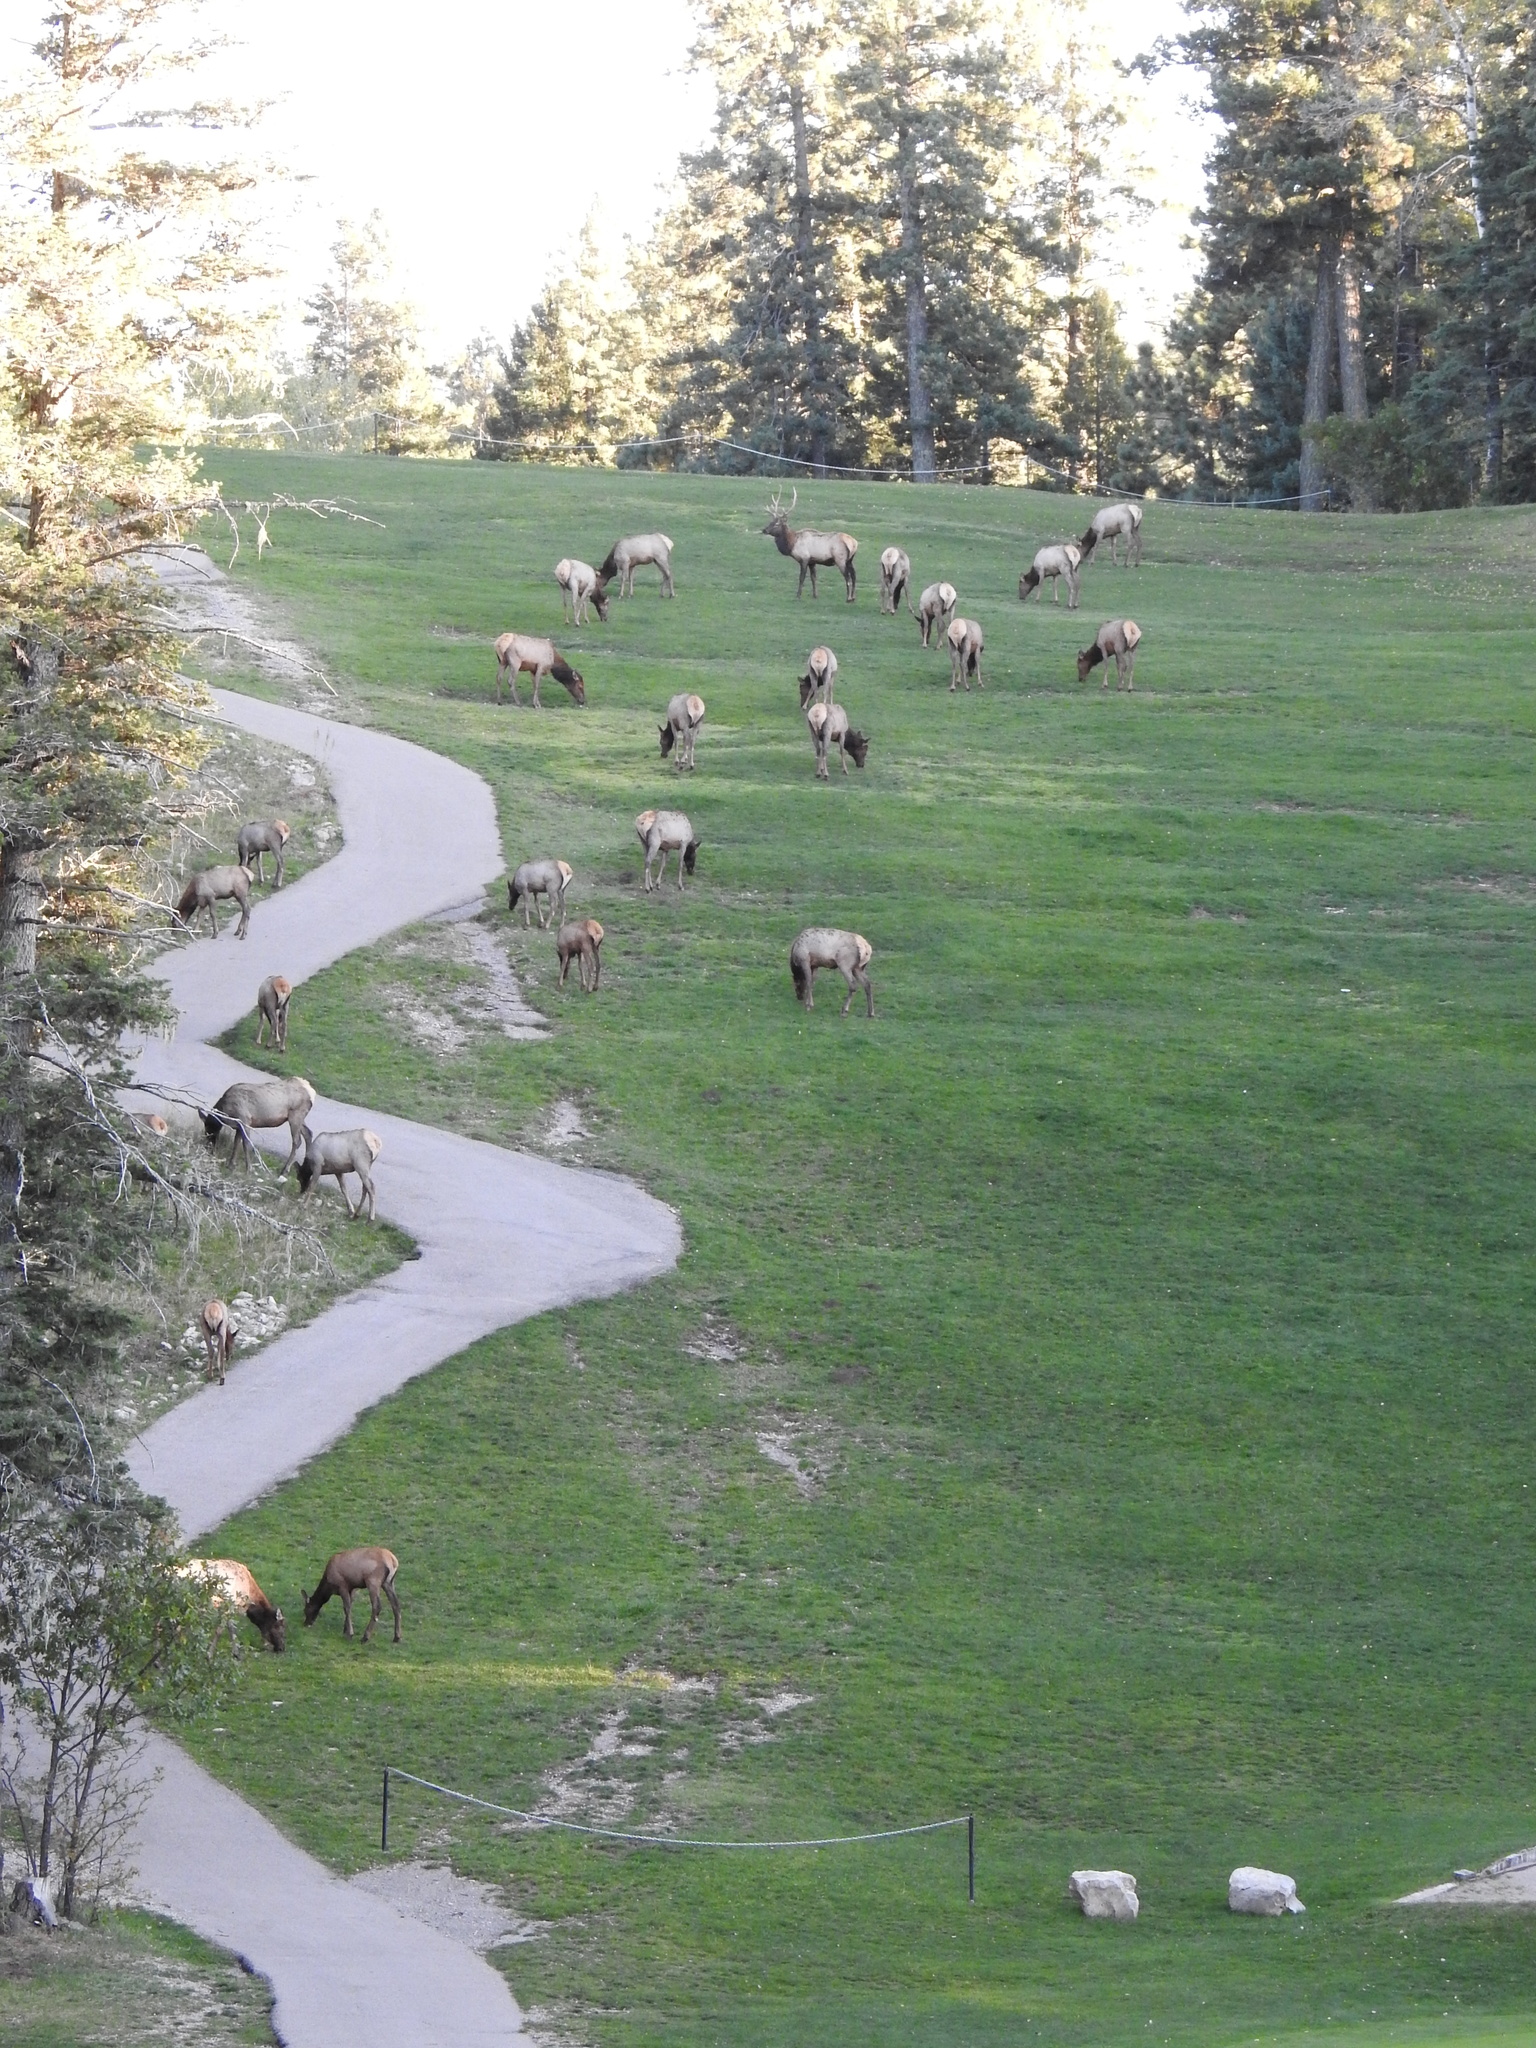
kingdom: Animalia
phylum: Chordata
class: Mammalia
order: Artiodactyla
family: Cervidae
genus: Cervus
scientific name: Cervus elaphus
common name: Red deer
